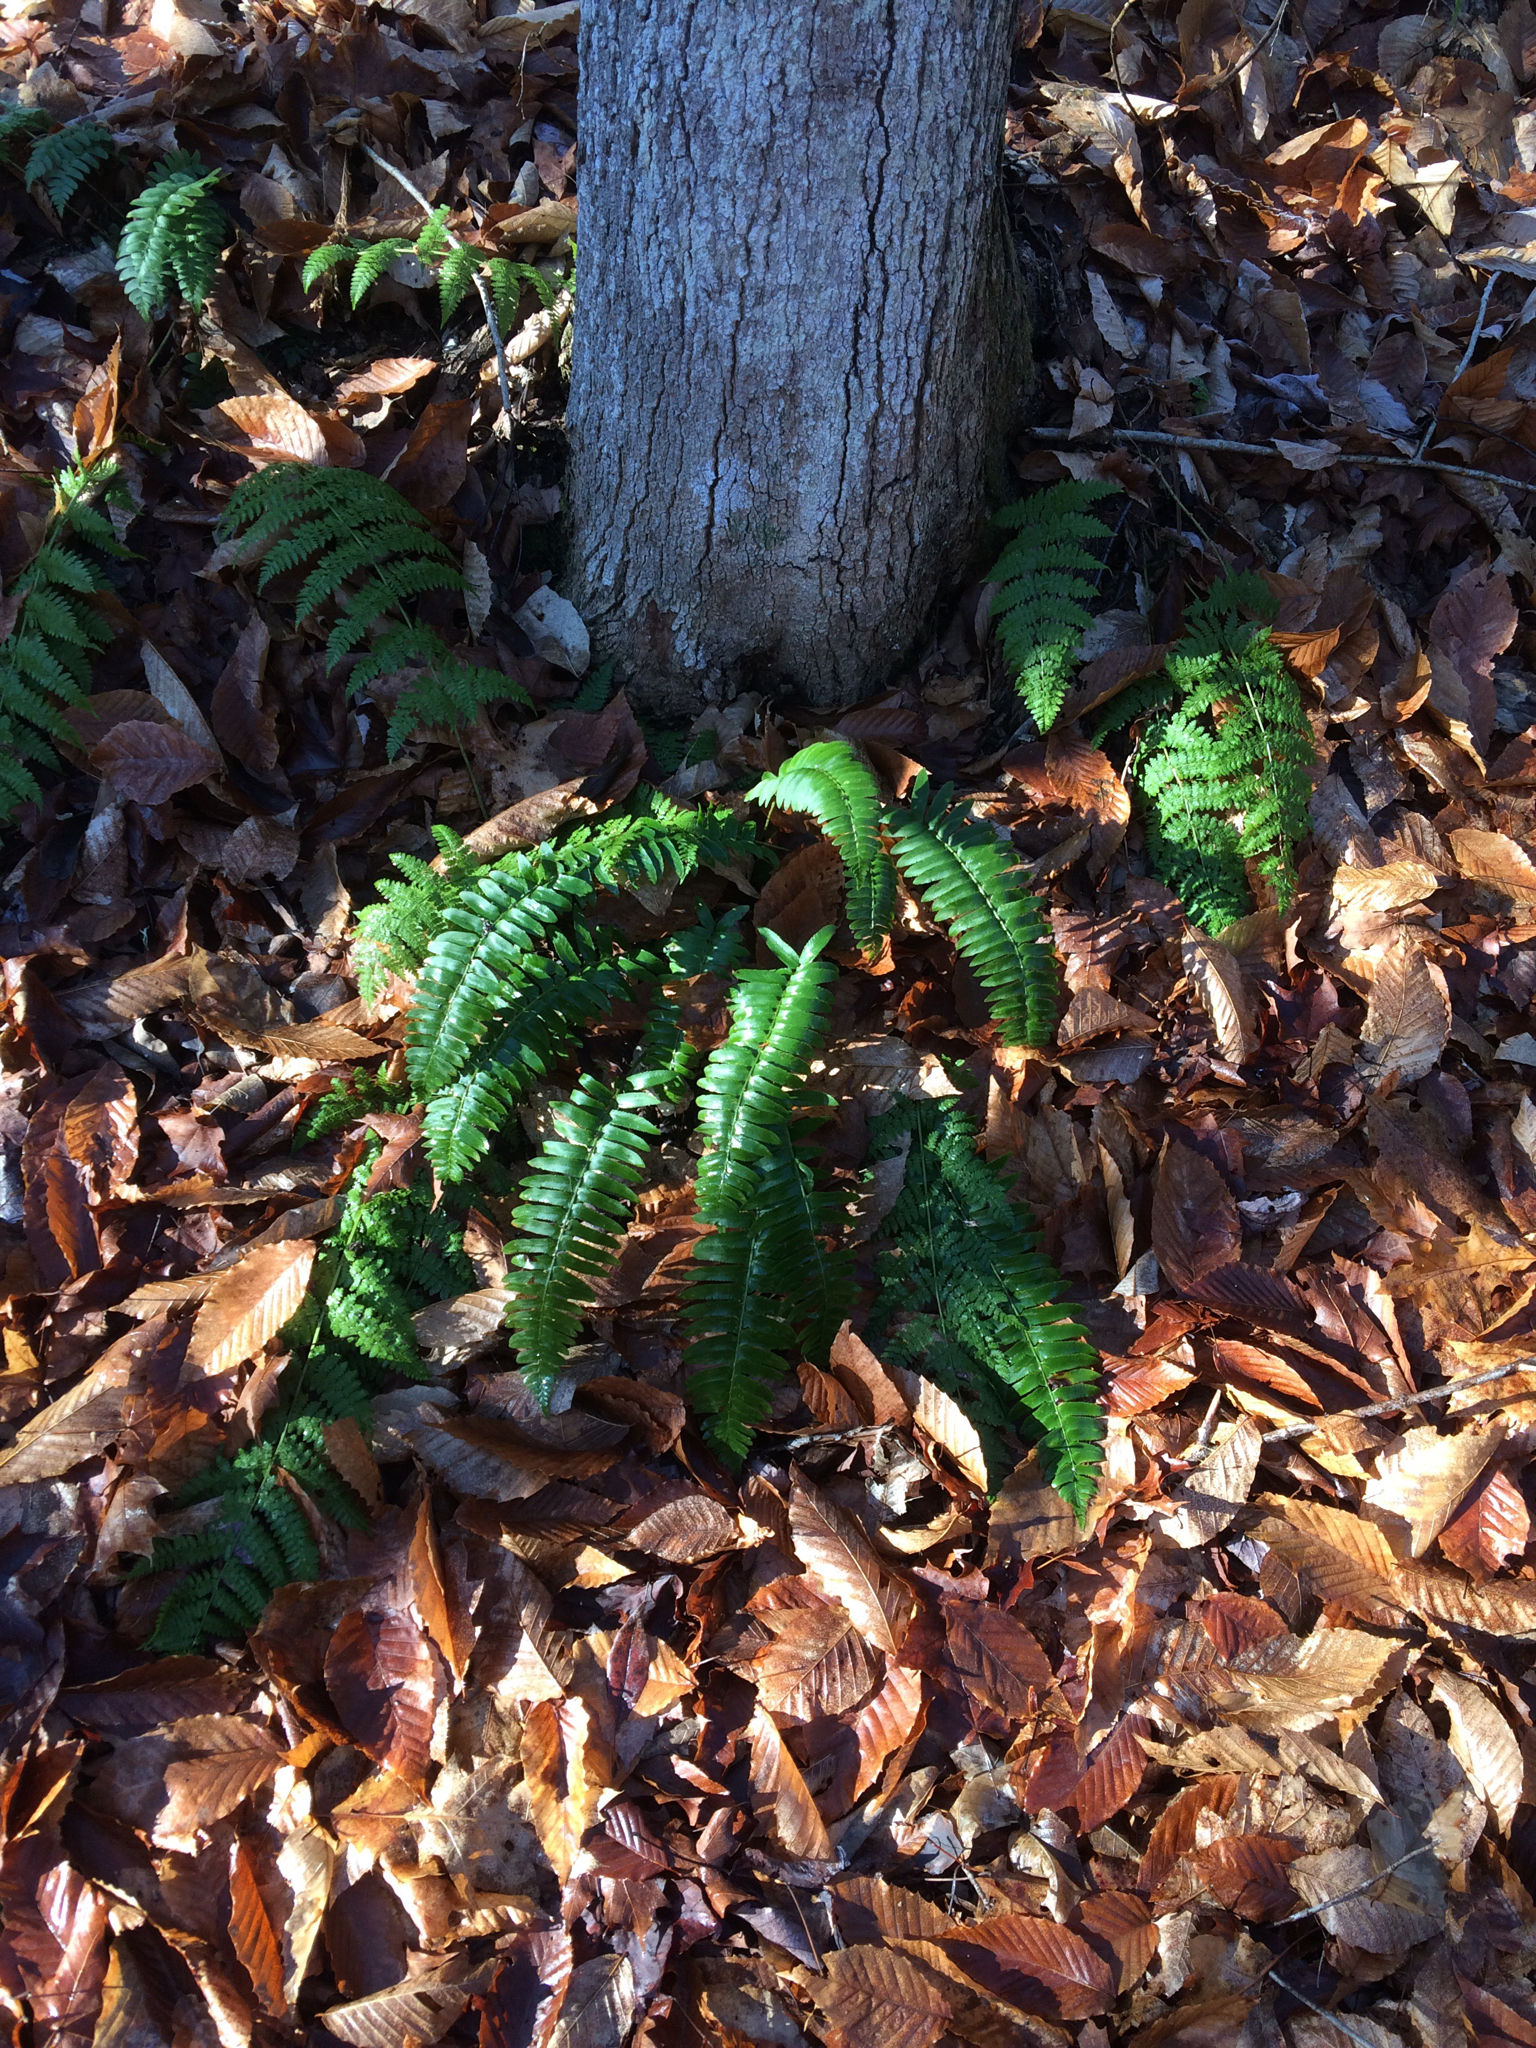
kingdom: Plantae
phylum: Tracheophyta
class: Polypodiopsida
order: Polypodiales
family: Dryopteridaceae
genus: Polystichum
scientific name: Polystichum acrostichoides
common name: Christmas fern
